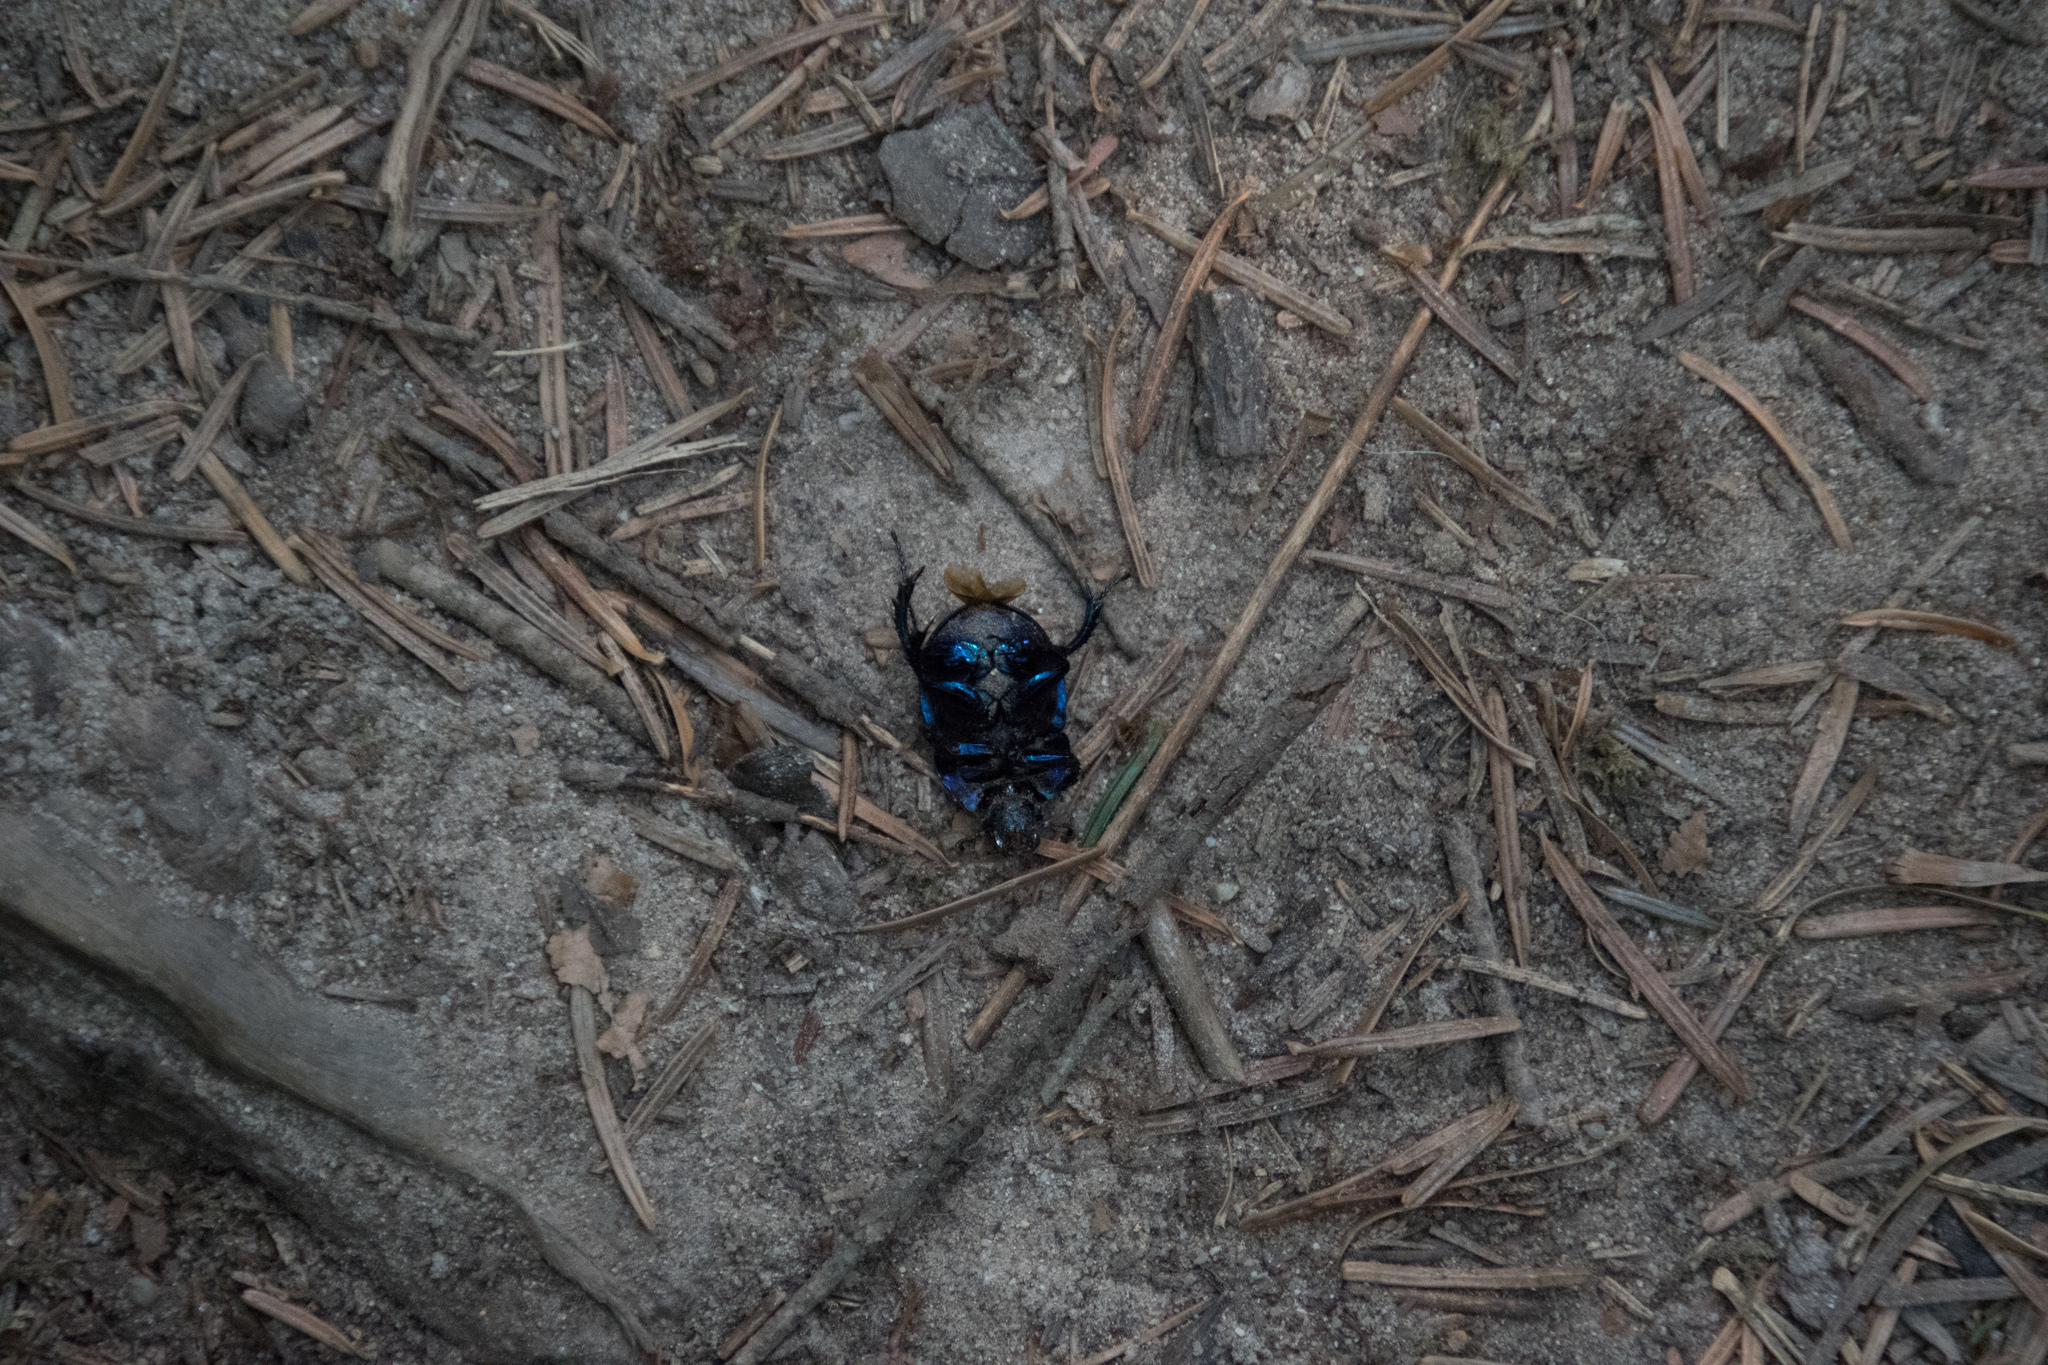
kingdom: Animalia
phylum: Arthropoda
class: Insecta
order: Coleoptera
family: Geotrupidae
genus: Anoplotrupes
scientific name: Anoplotrupes stercorosus
